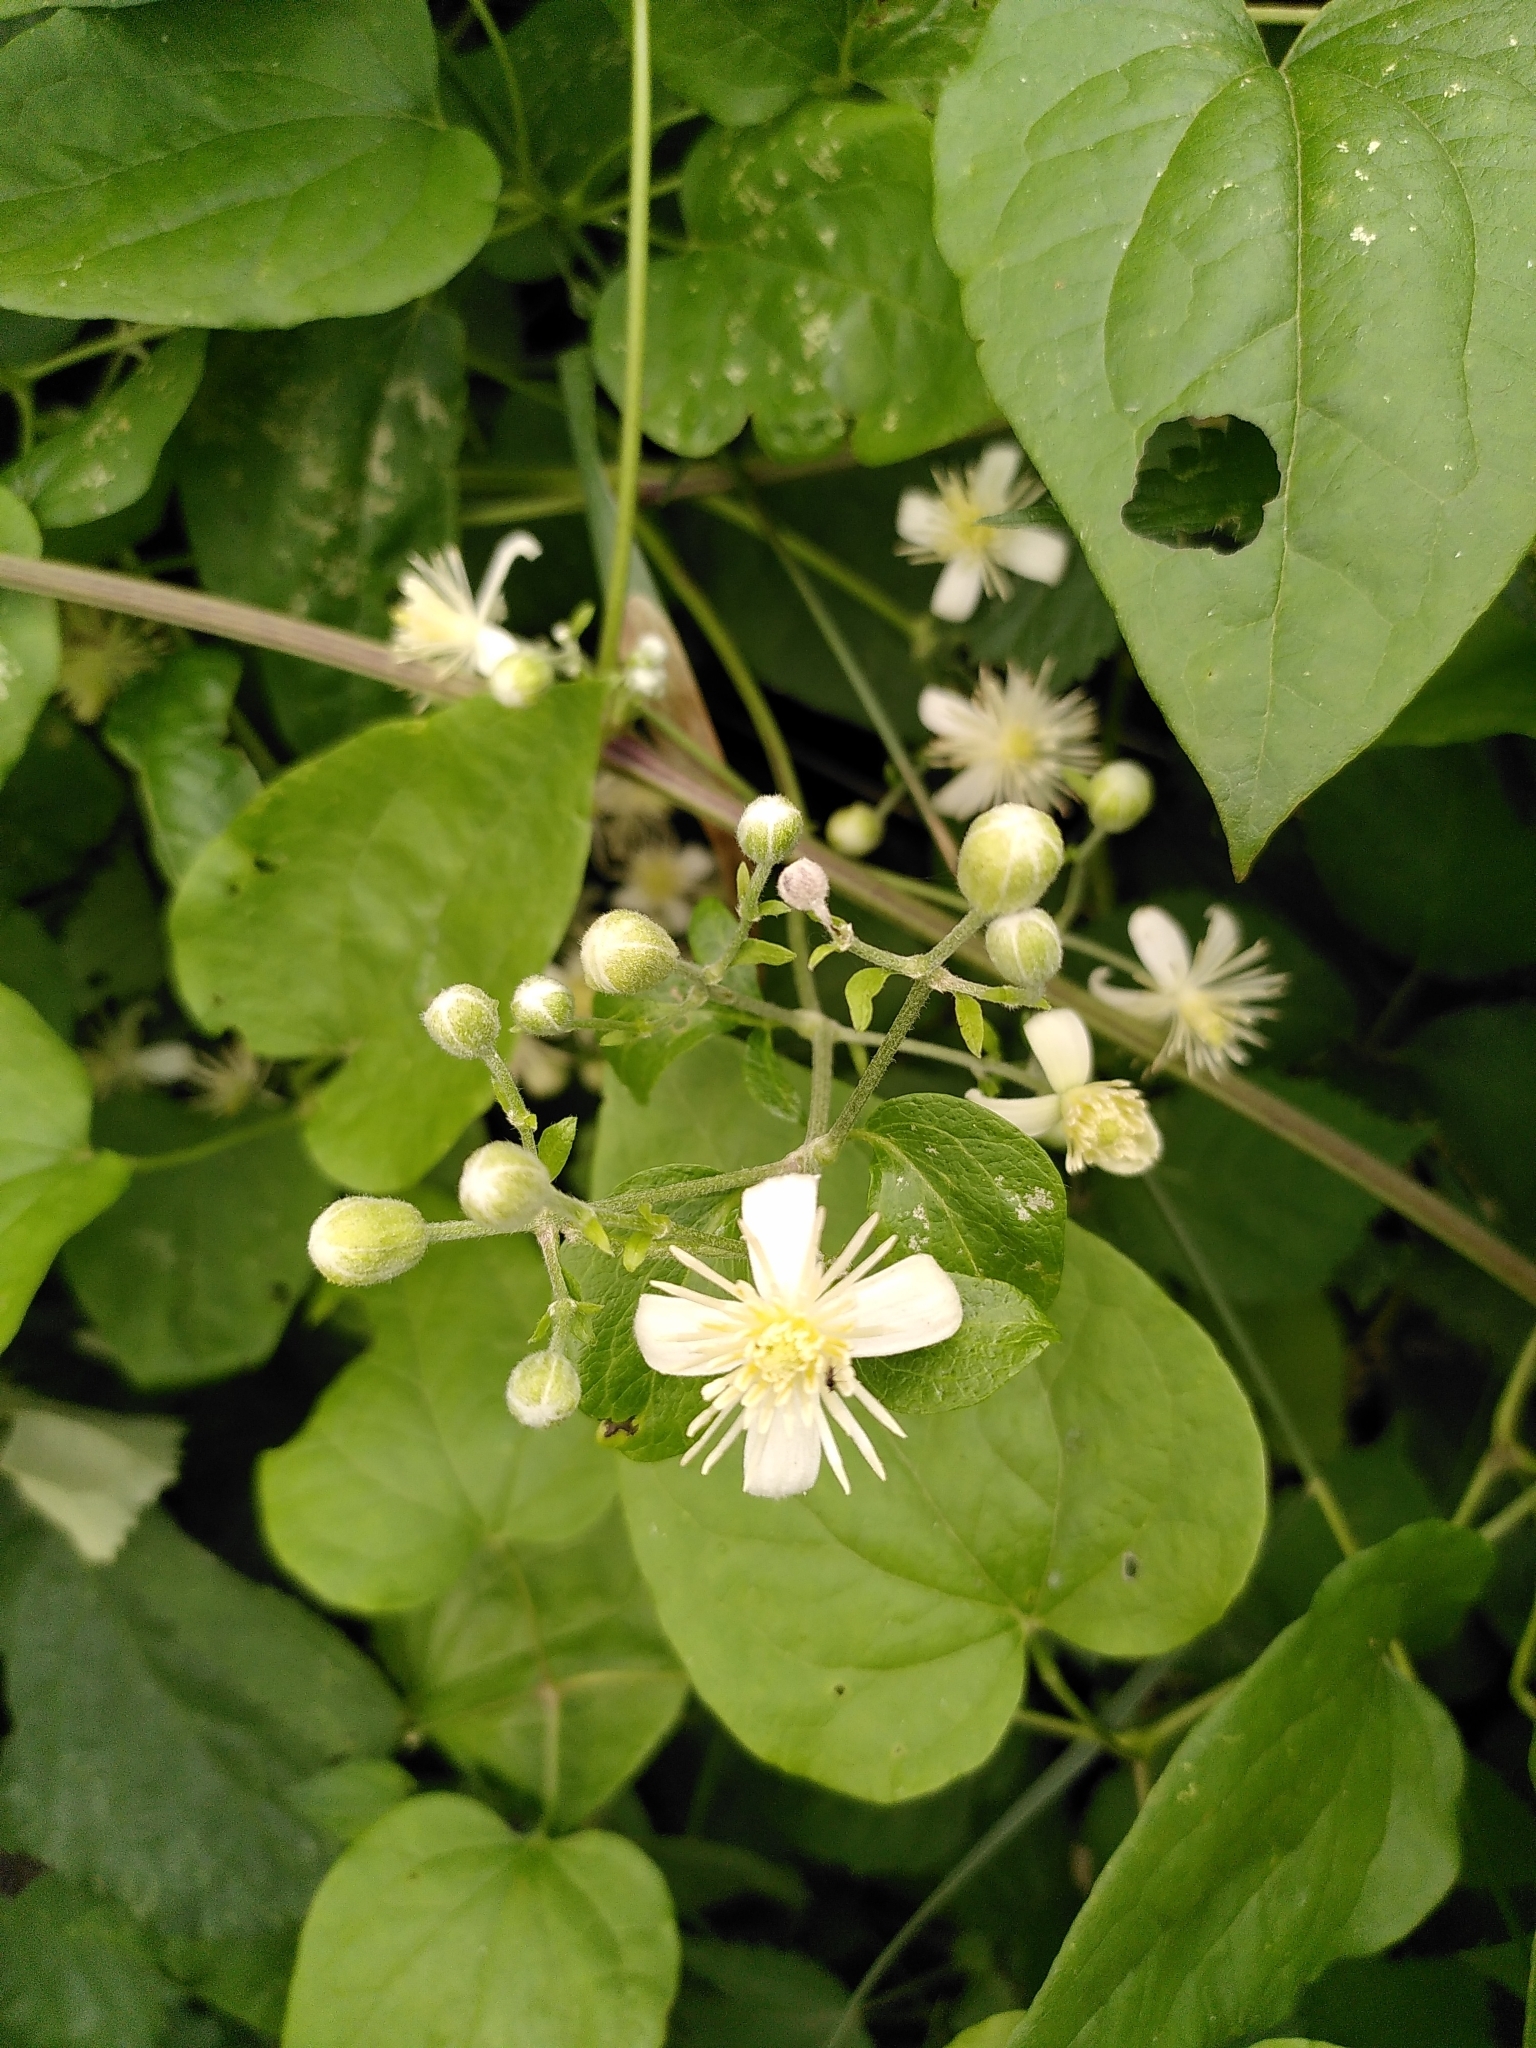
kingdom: Plantae
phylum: Tracheophyta
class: Magnoliopsida
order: Ranunculales
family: Ranunculaceae
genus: Clematis
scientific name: Clematis vitalba
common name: Evergreen clematis
